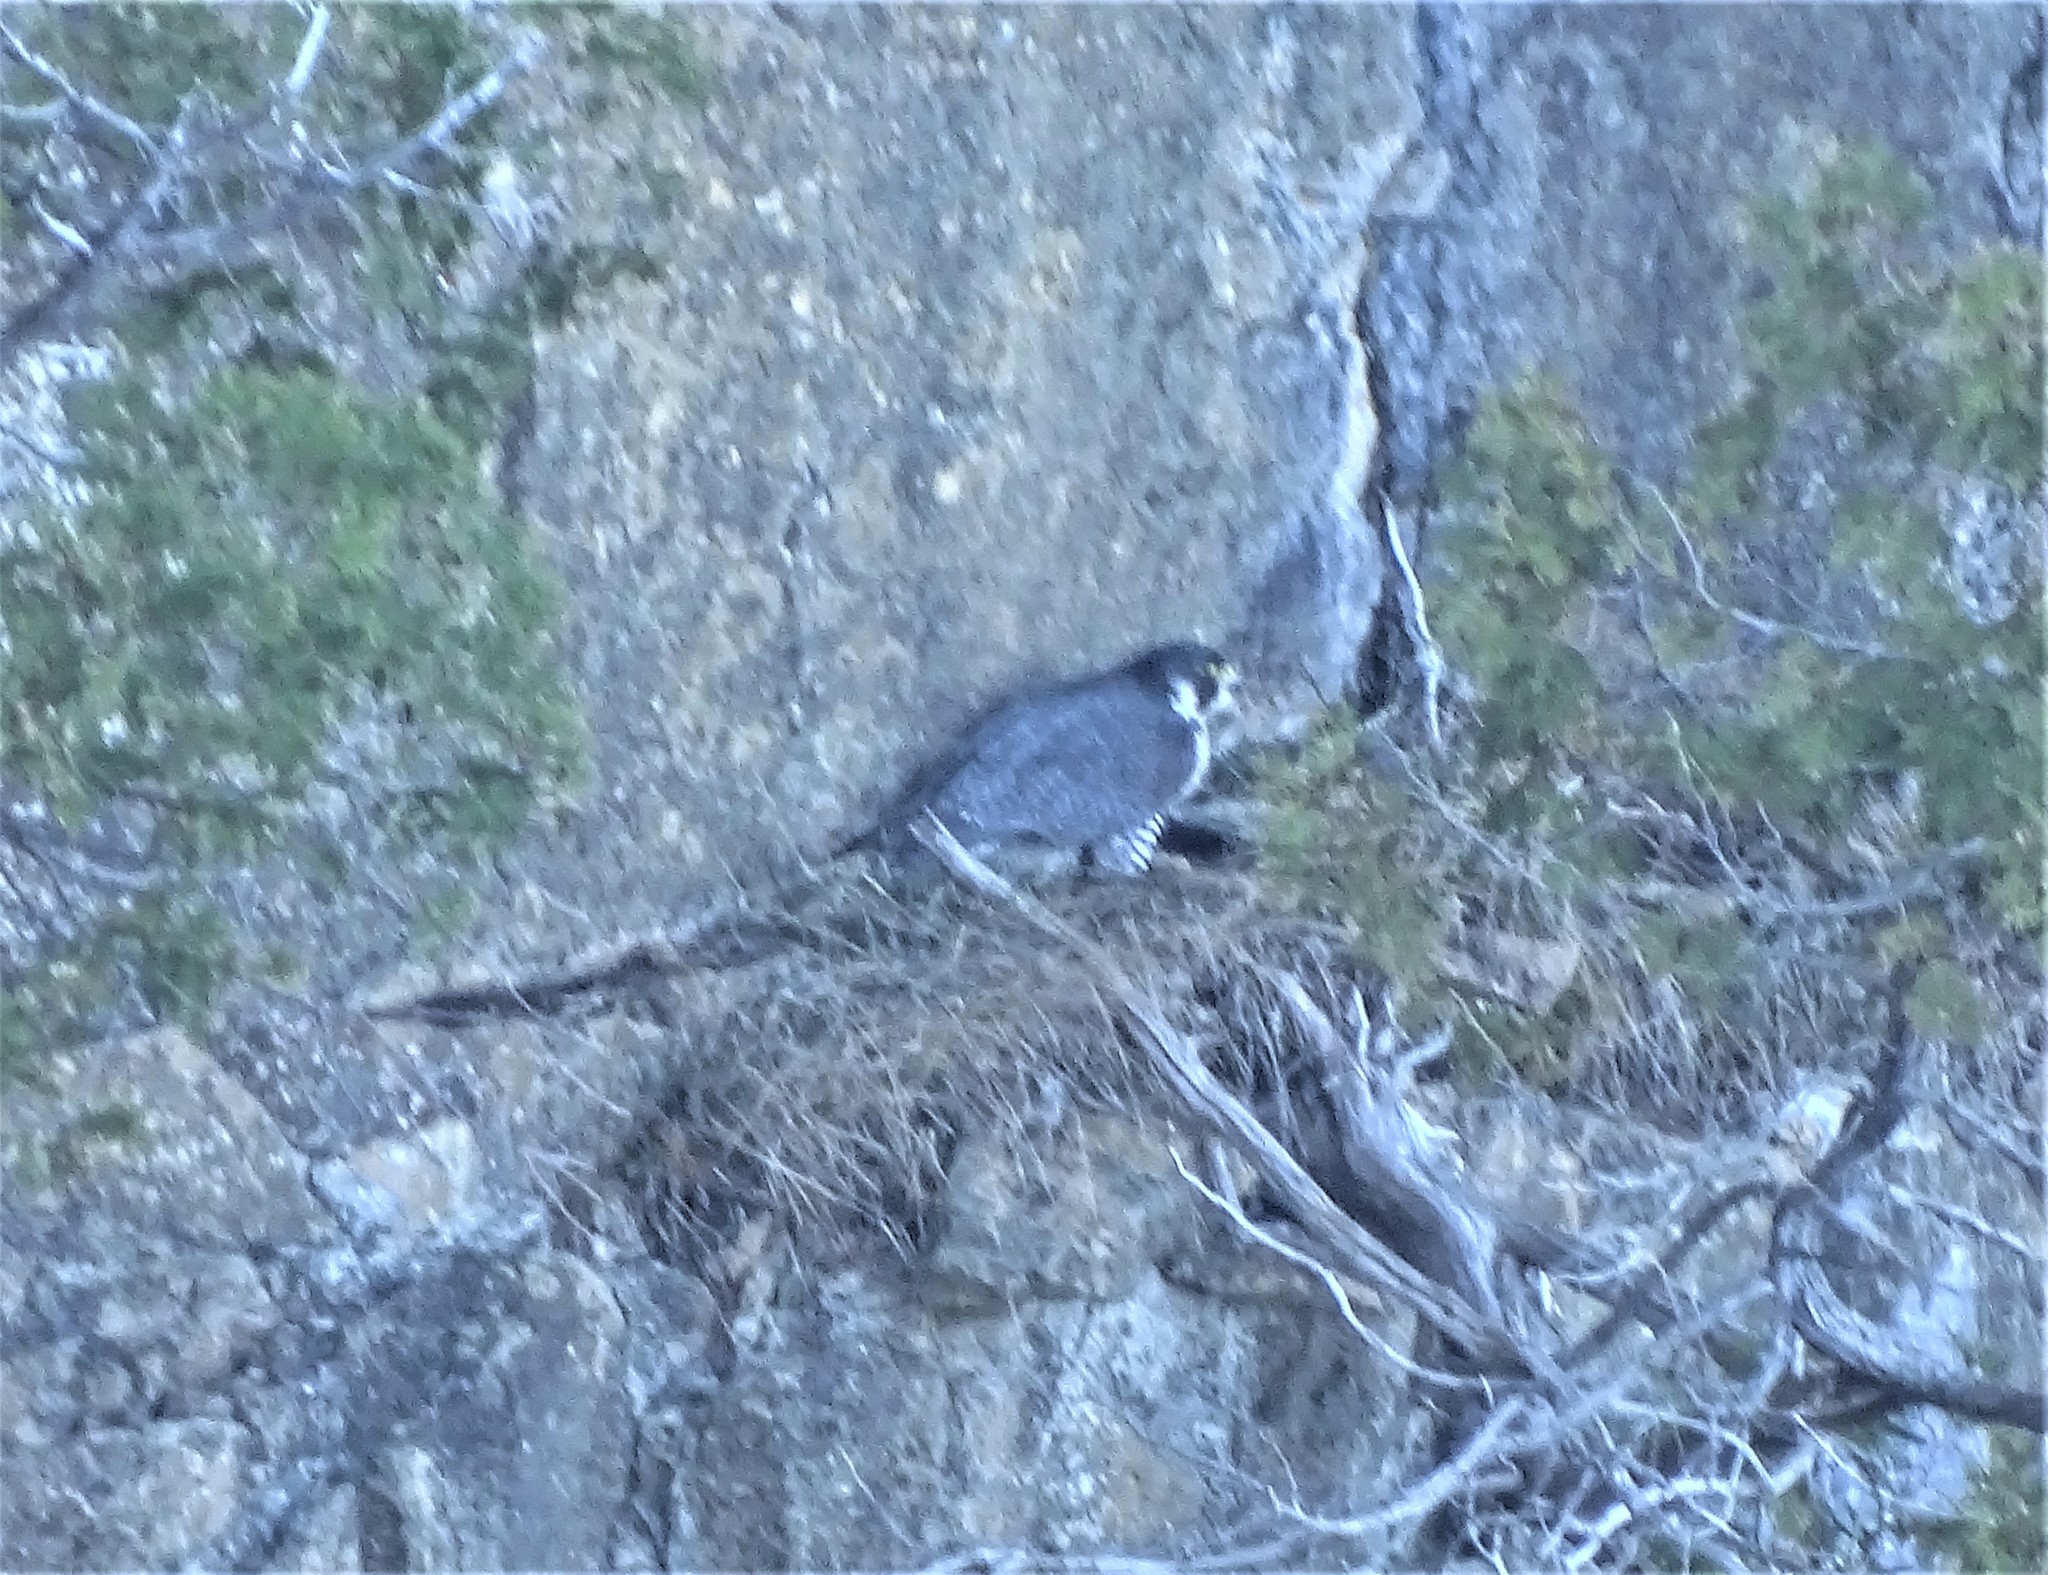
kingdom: Animalia
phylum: Chordata
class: Aves
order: Falconiformes
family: Falconidae
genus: Falco
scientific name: Falco peregrinus
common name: Peregrine falcon
